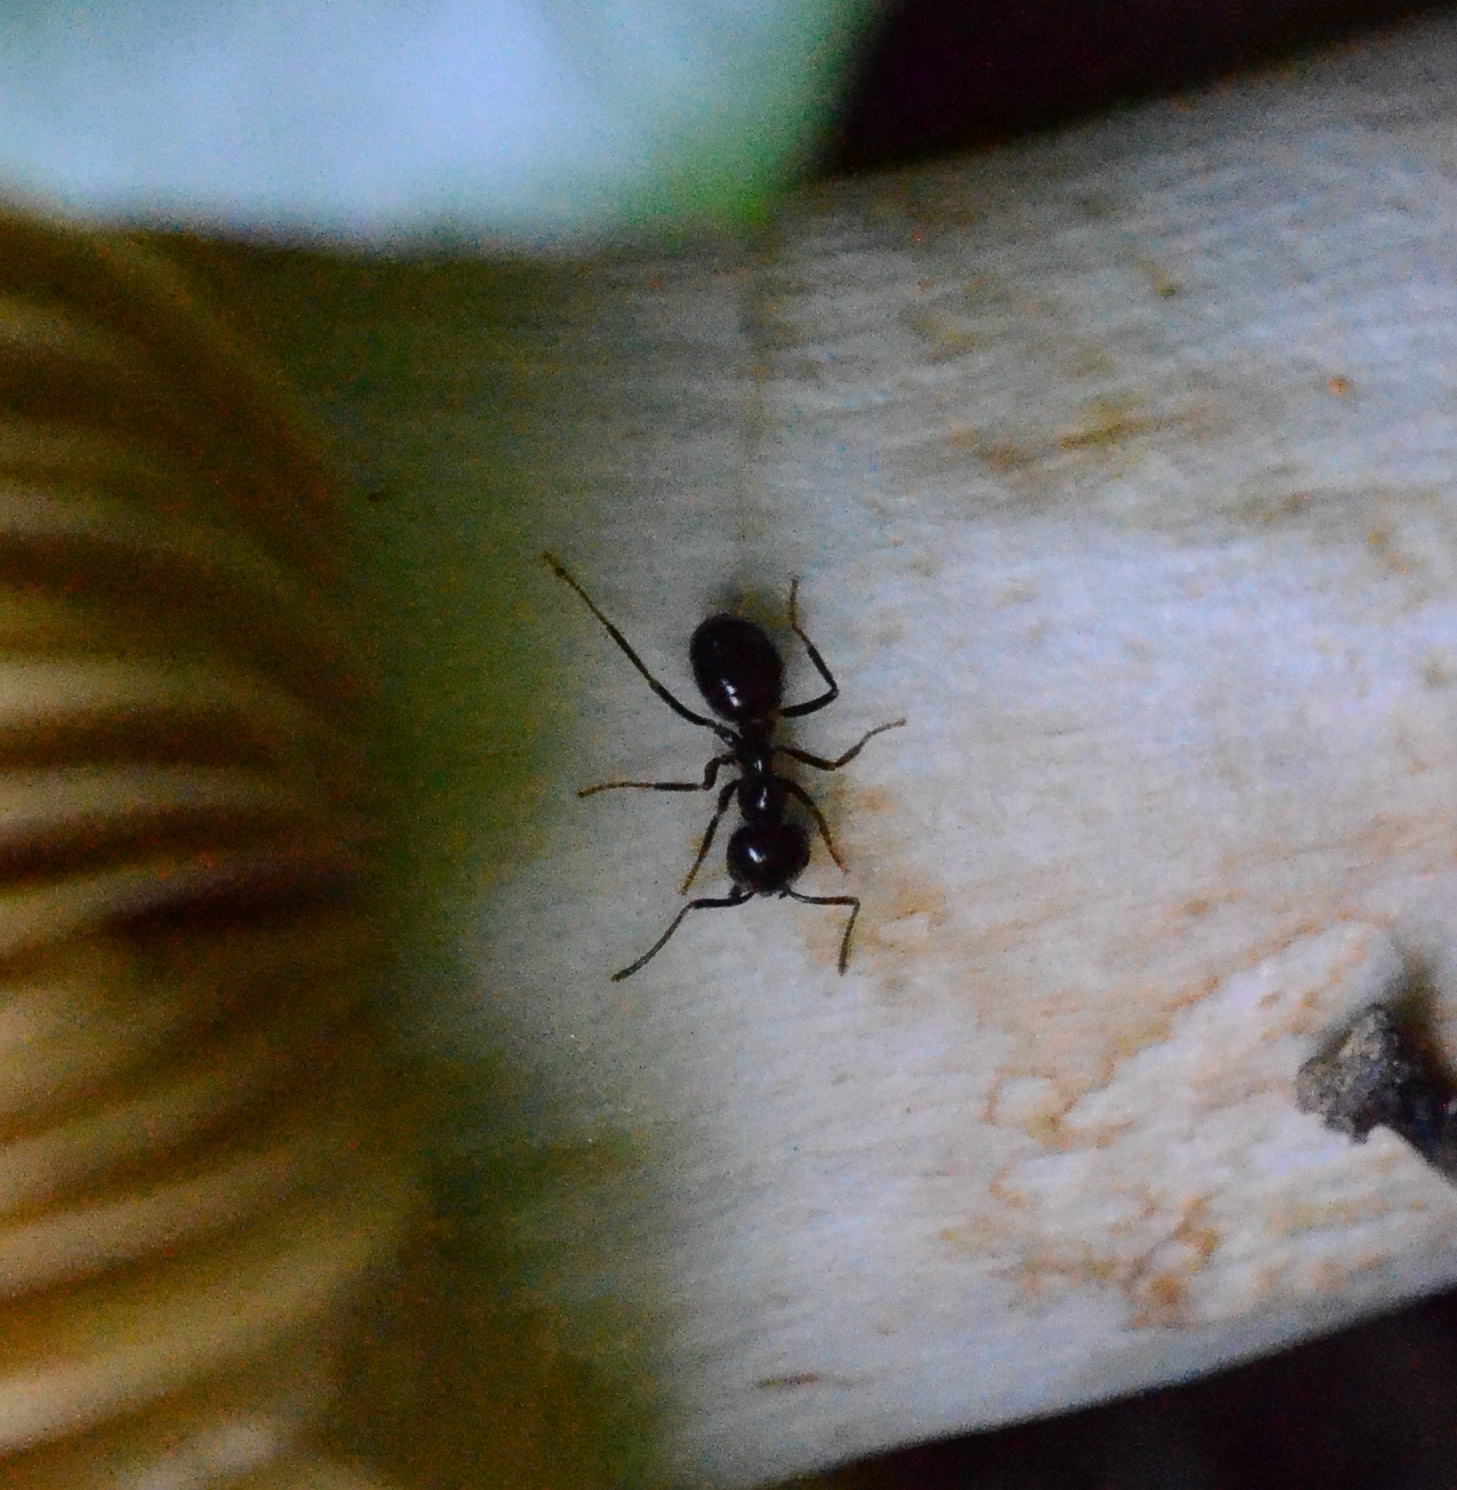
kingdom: Animalia
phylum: Arthropoda
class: Insecta
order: Hymenoptera
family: Formicidae
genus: Lasius
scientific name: Lasius fuliginosus
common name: Jet ant
